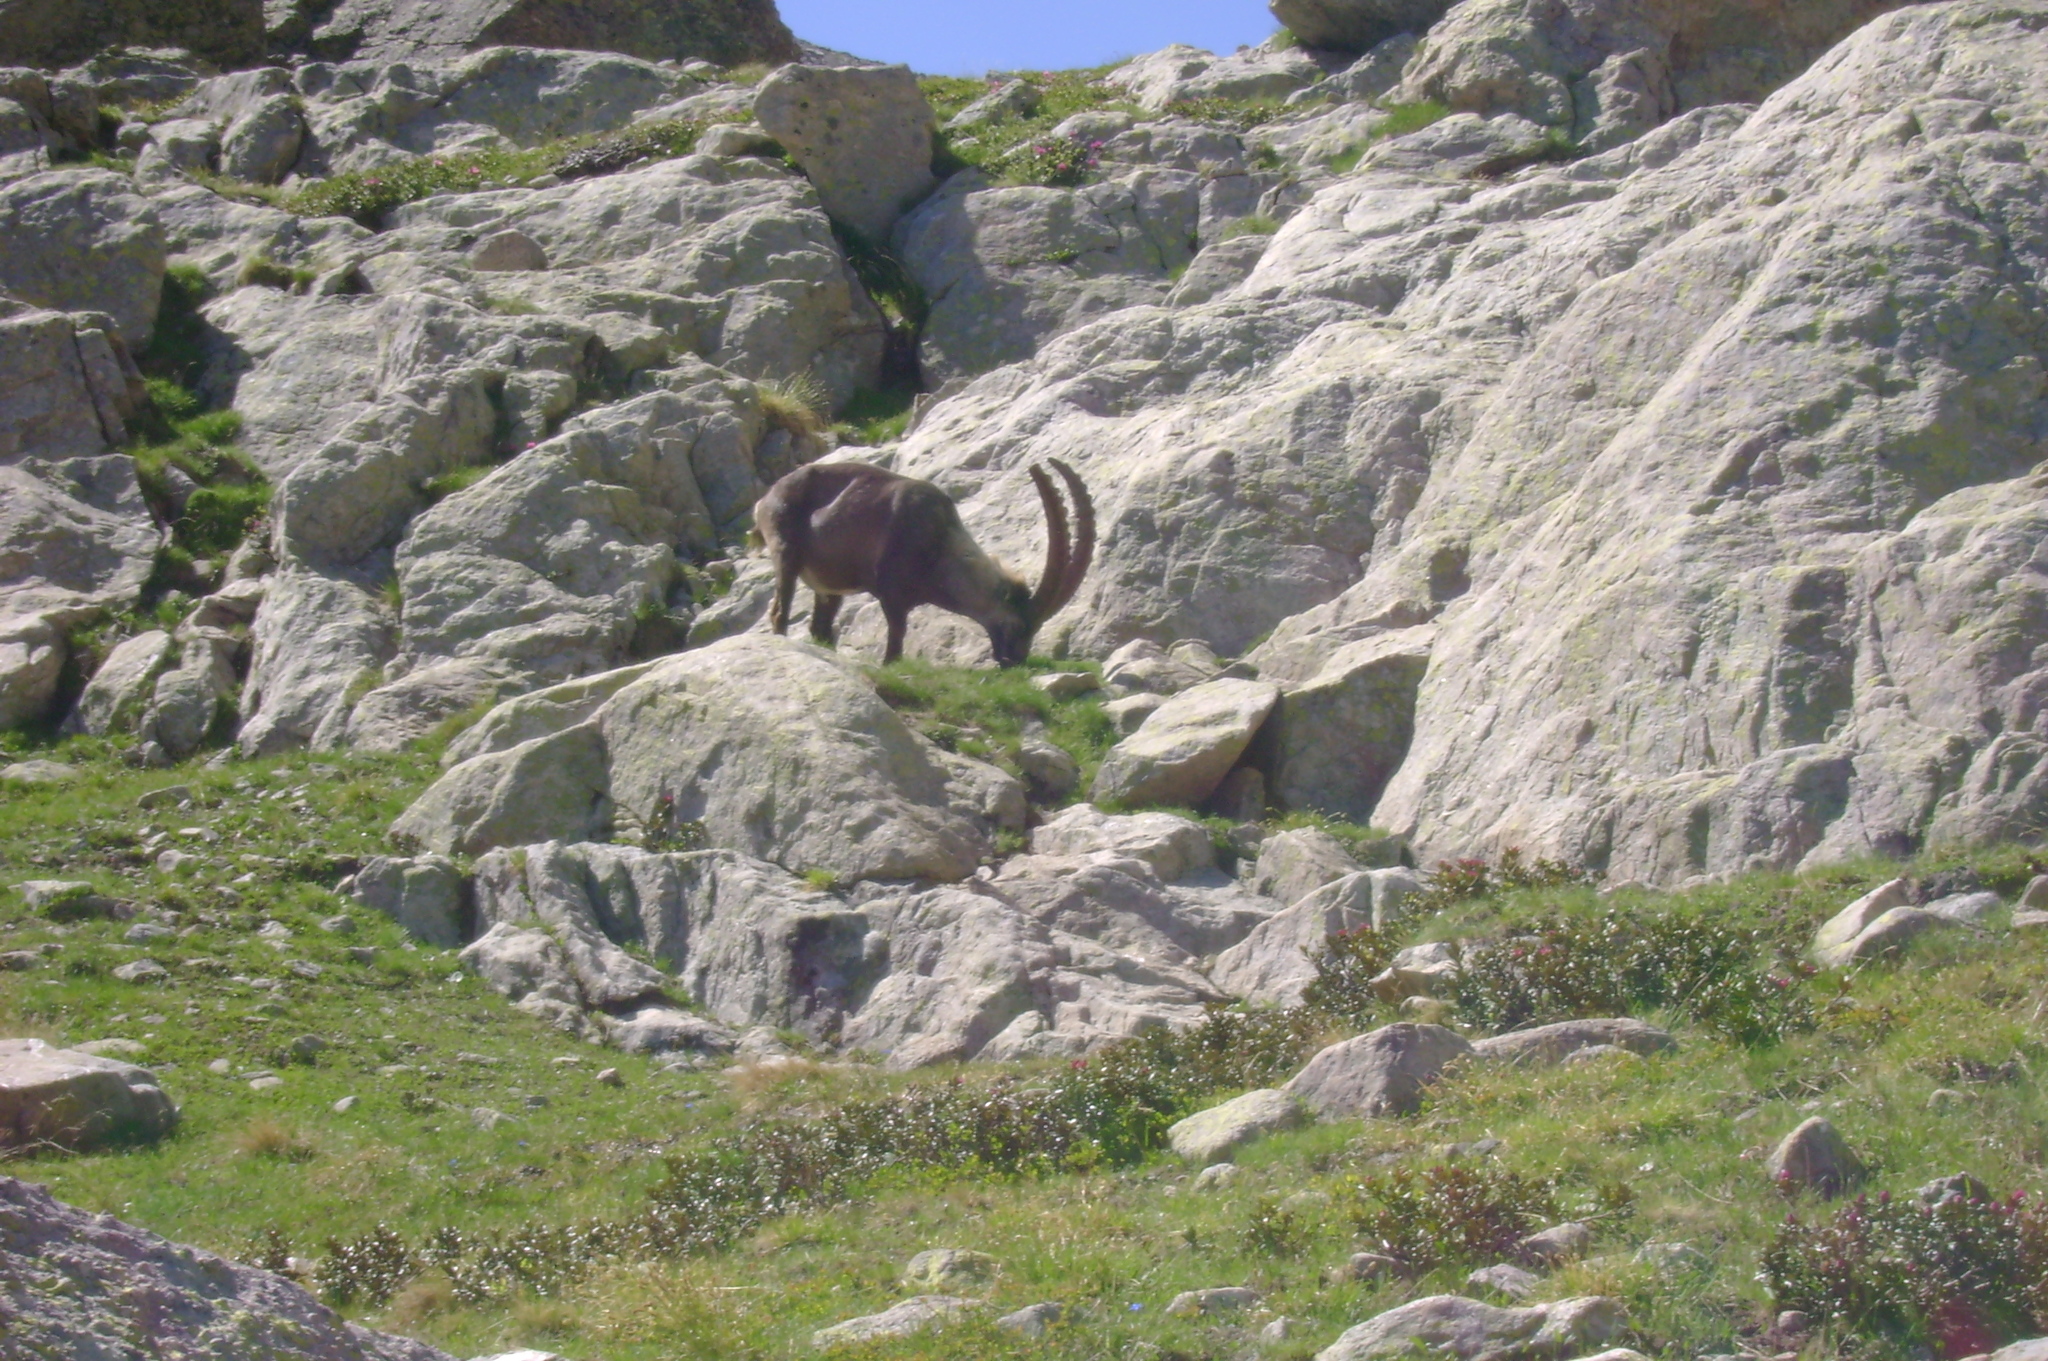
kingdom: Animalia
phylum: Chordata
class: Mammalia
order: Artiodactyla
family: Bovidae
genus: Capra
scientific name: Capra ibex
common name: Alpine ibex
